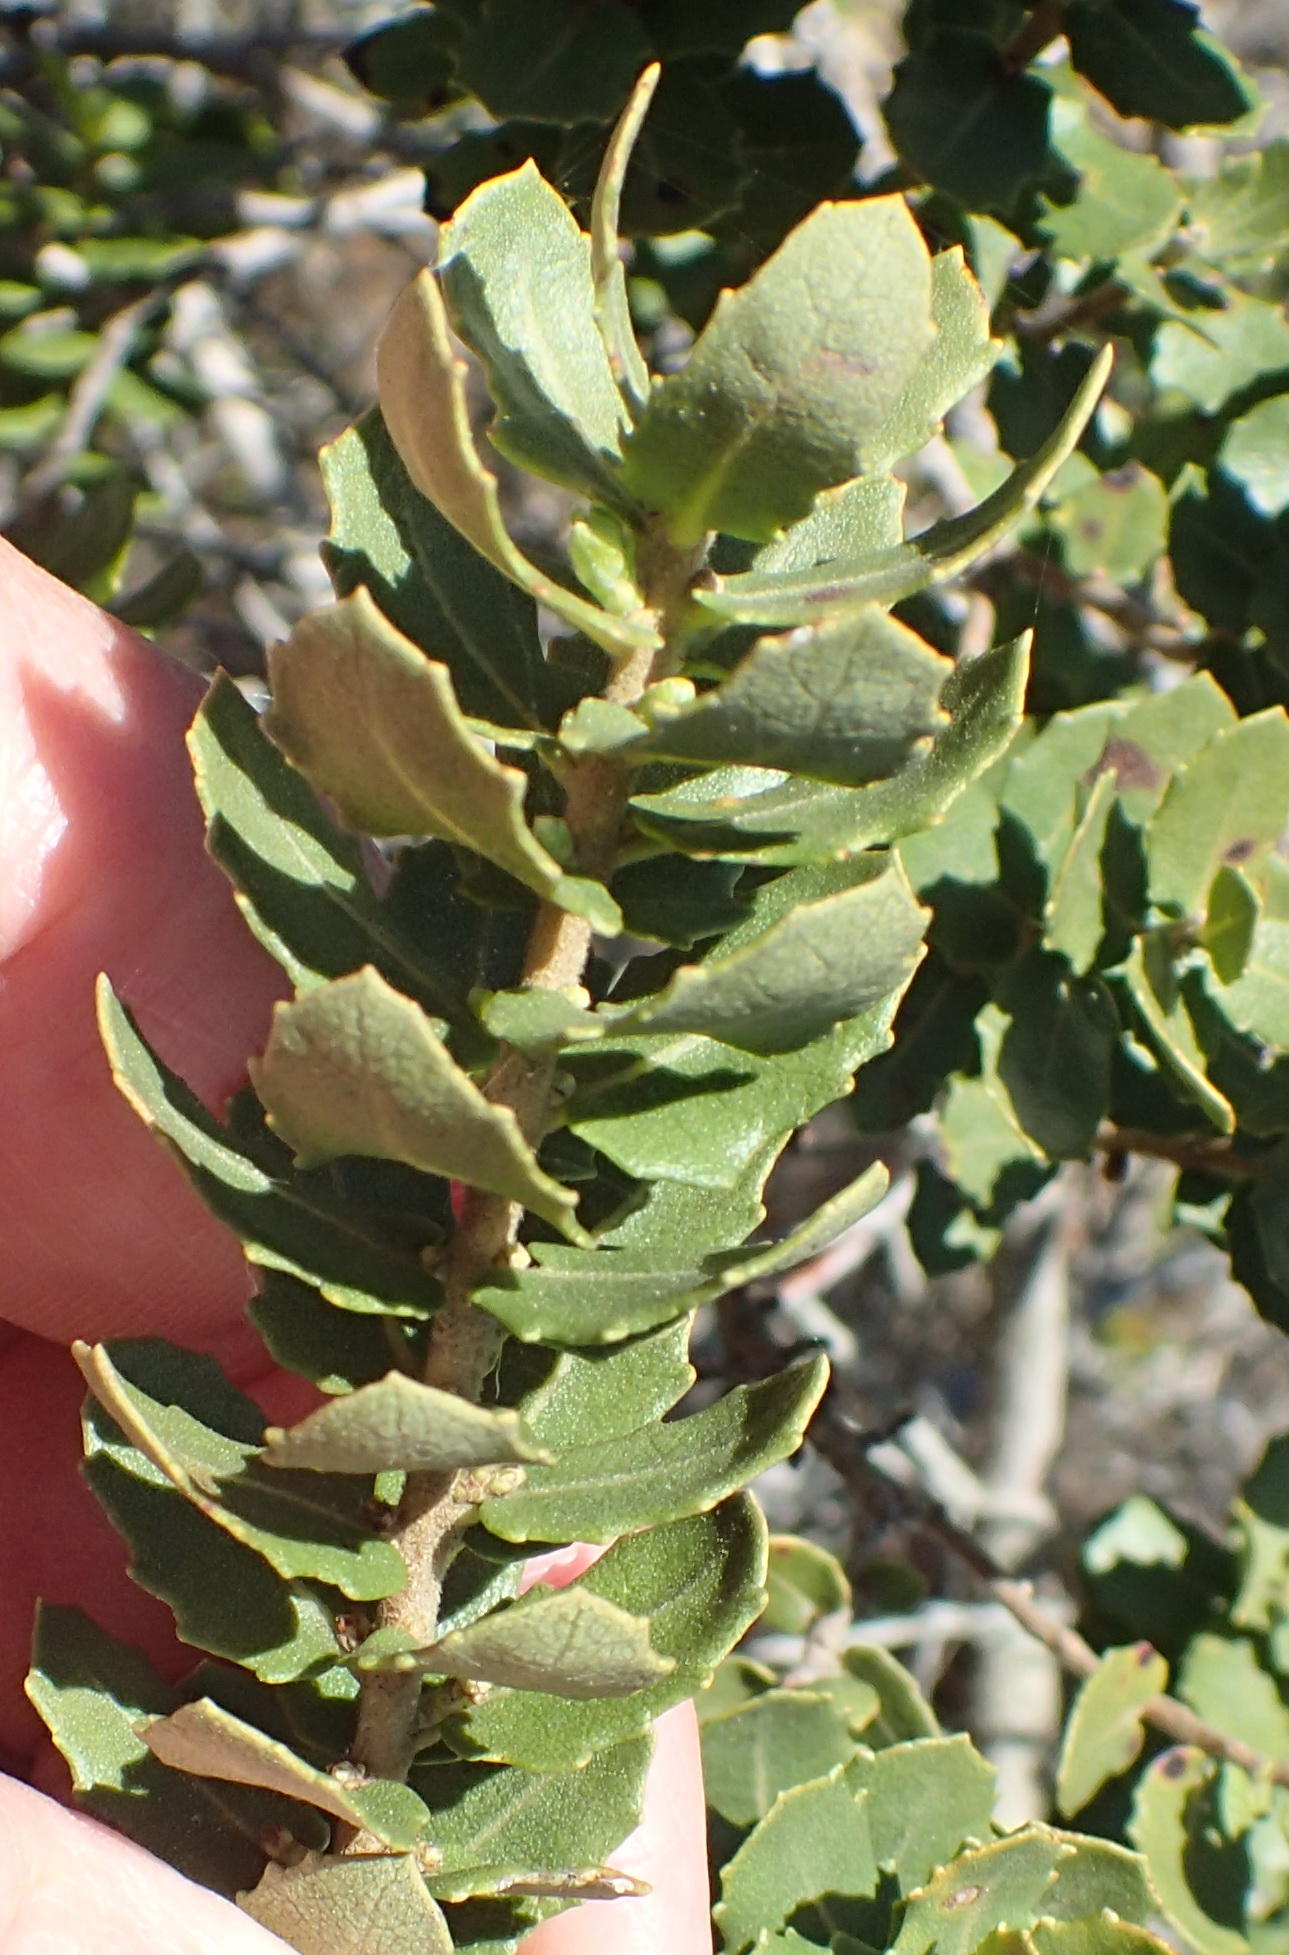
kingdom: Plantae
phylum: Tracheophyta
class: Magnoliopsida
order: Fagales
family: Myricaceae
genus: Morella
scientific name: Morella cordifolia
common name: Waxberry
